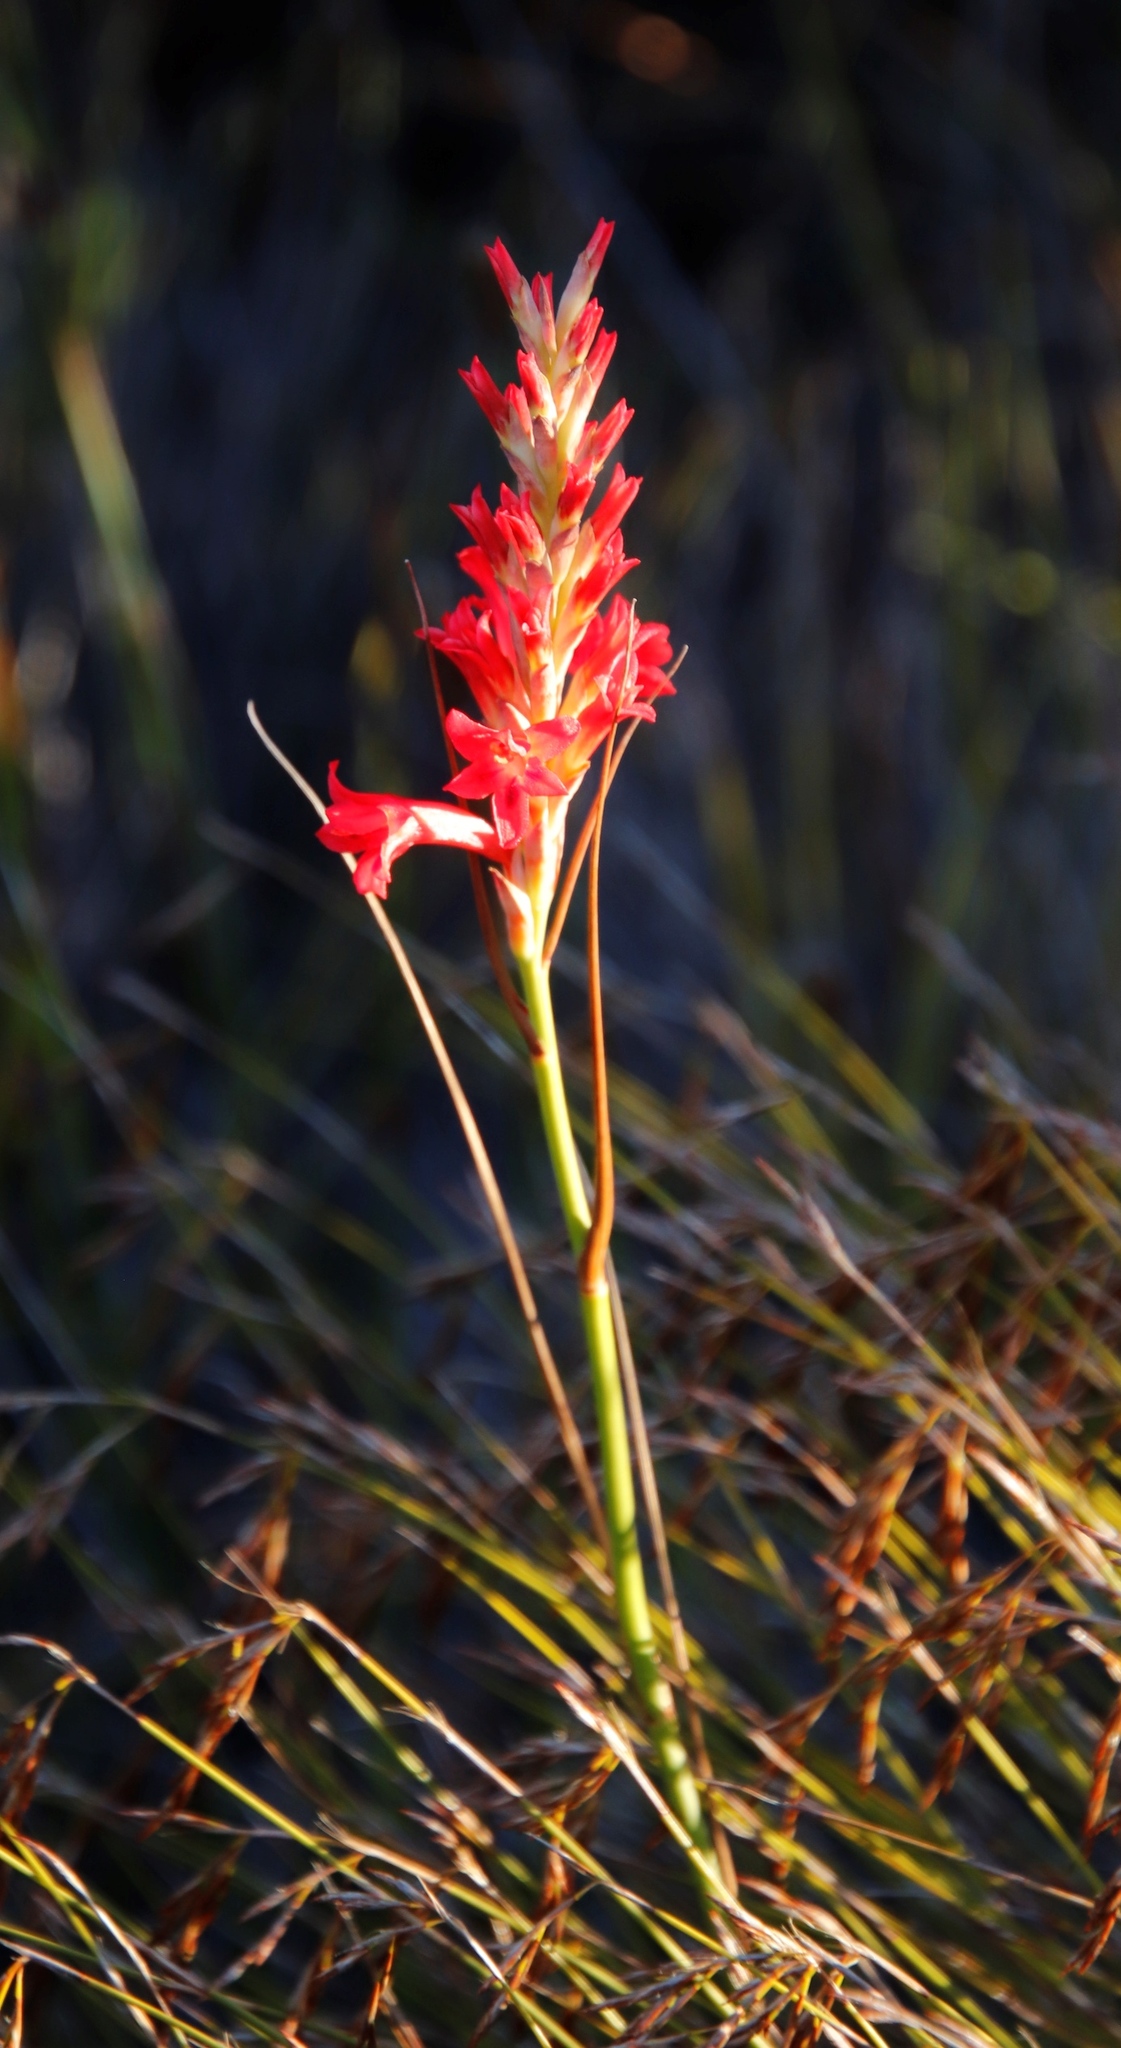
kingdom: Plantae
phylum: Tracheophyta
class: Liliopsida
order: Asparagales
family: Iridaceae
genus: Tritoniopsis
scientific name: Tritoniopsis triticea
